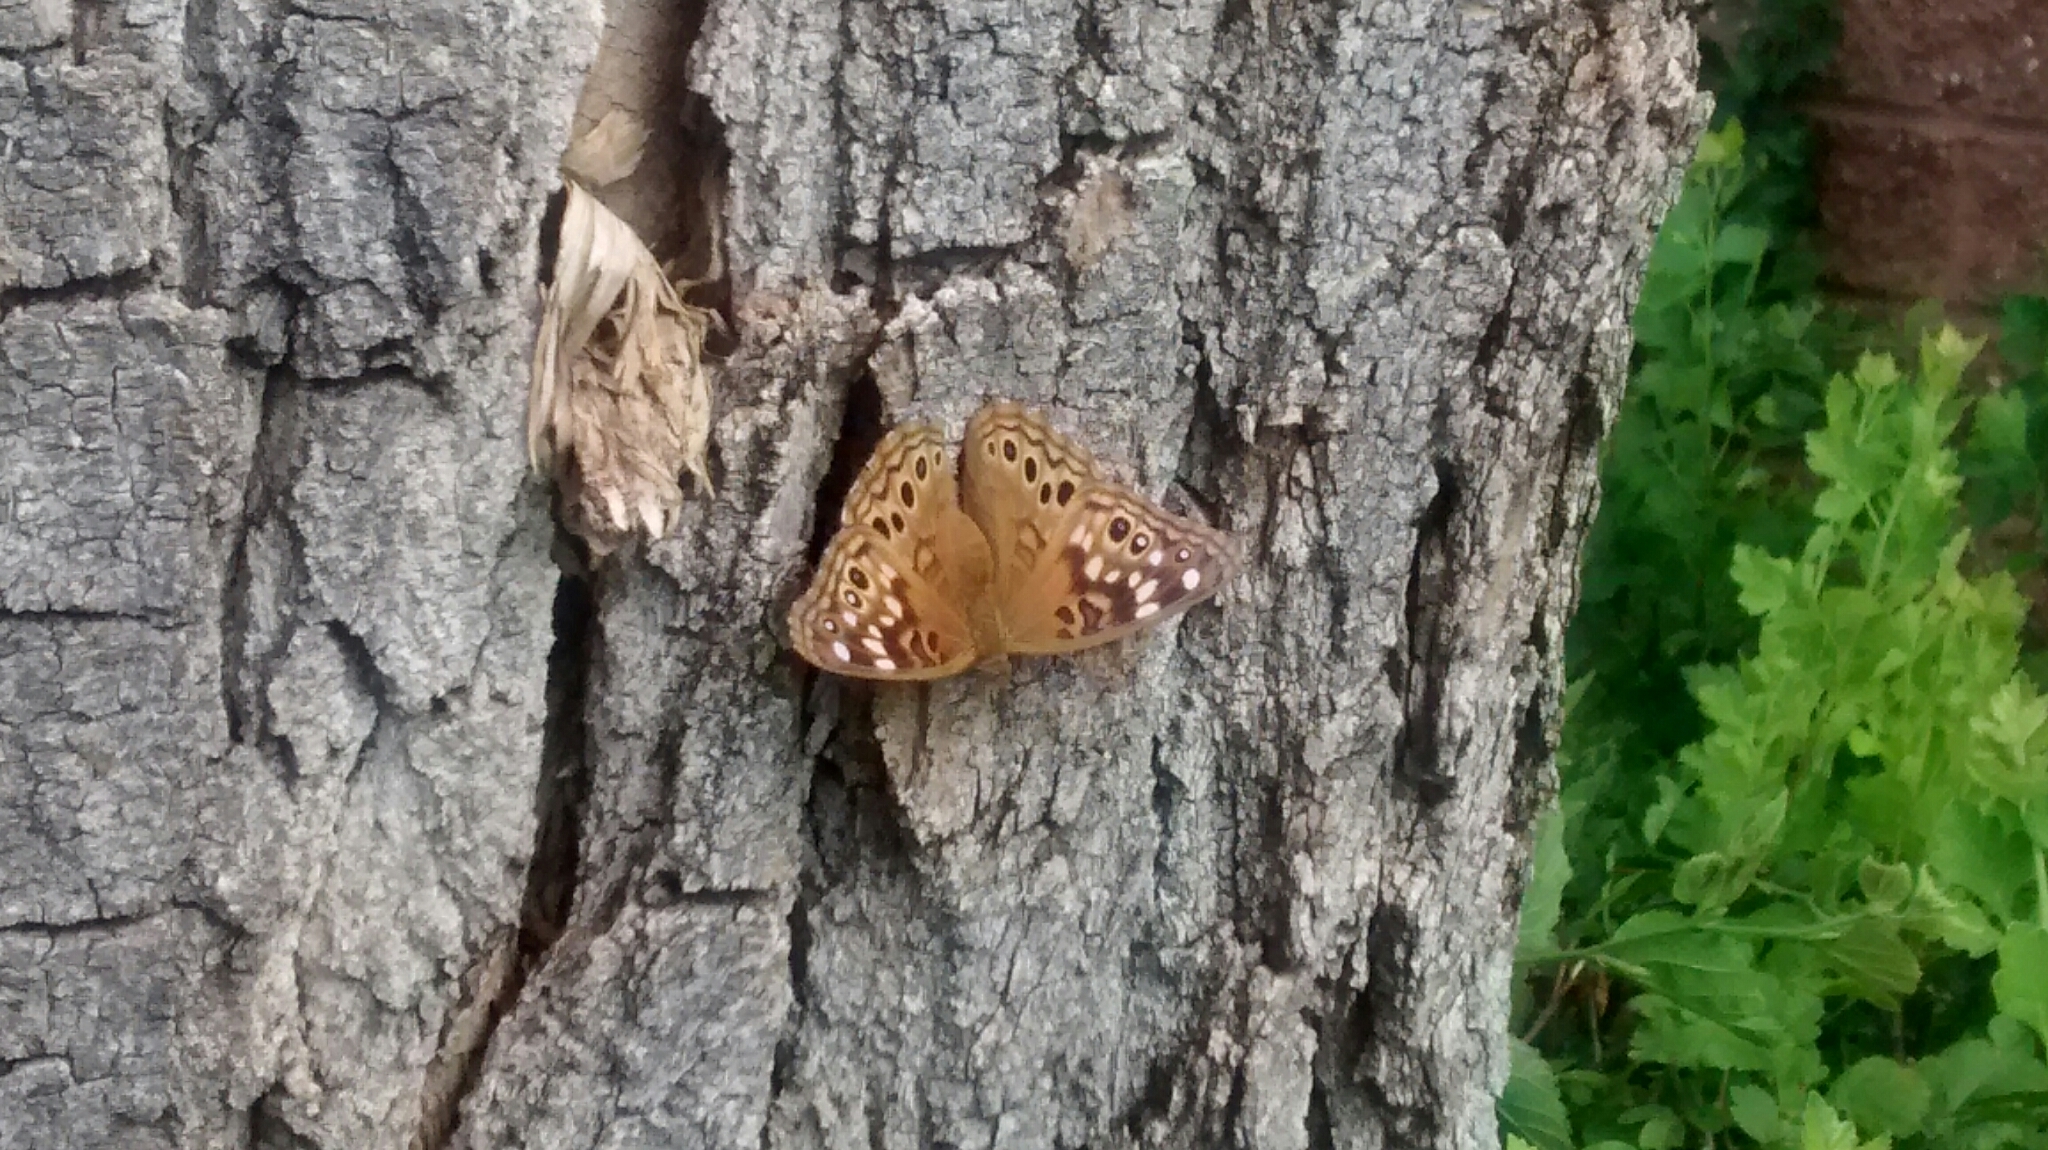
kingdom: Animalia
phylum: Arthropoda
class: Insecta
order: Lepidoptera
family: Nymphalidae
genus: Asterocampa
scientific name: Asterocampa celtis
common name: Hackberry emperor
